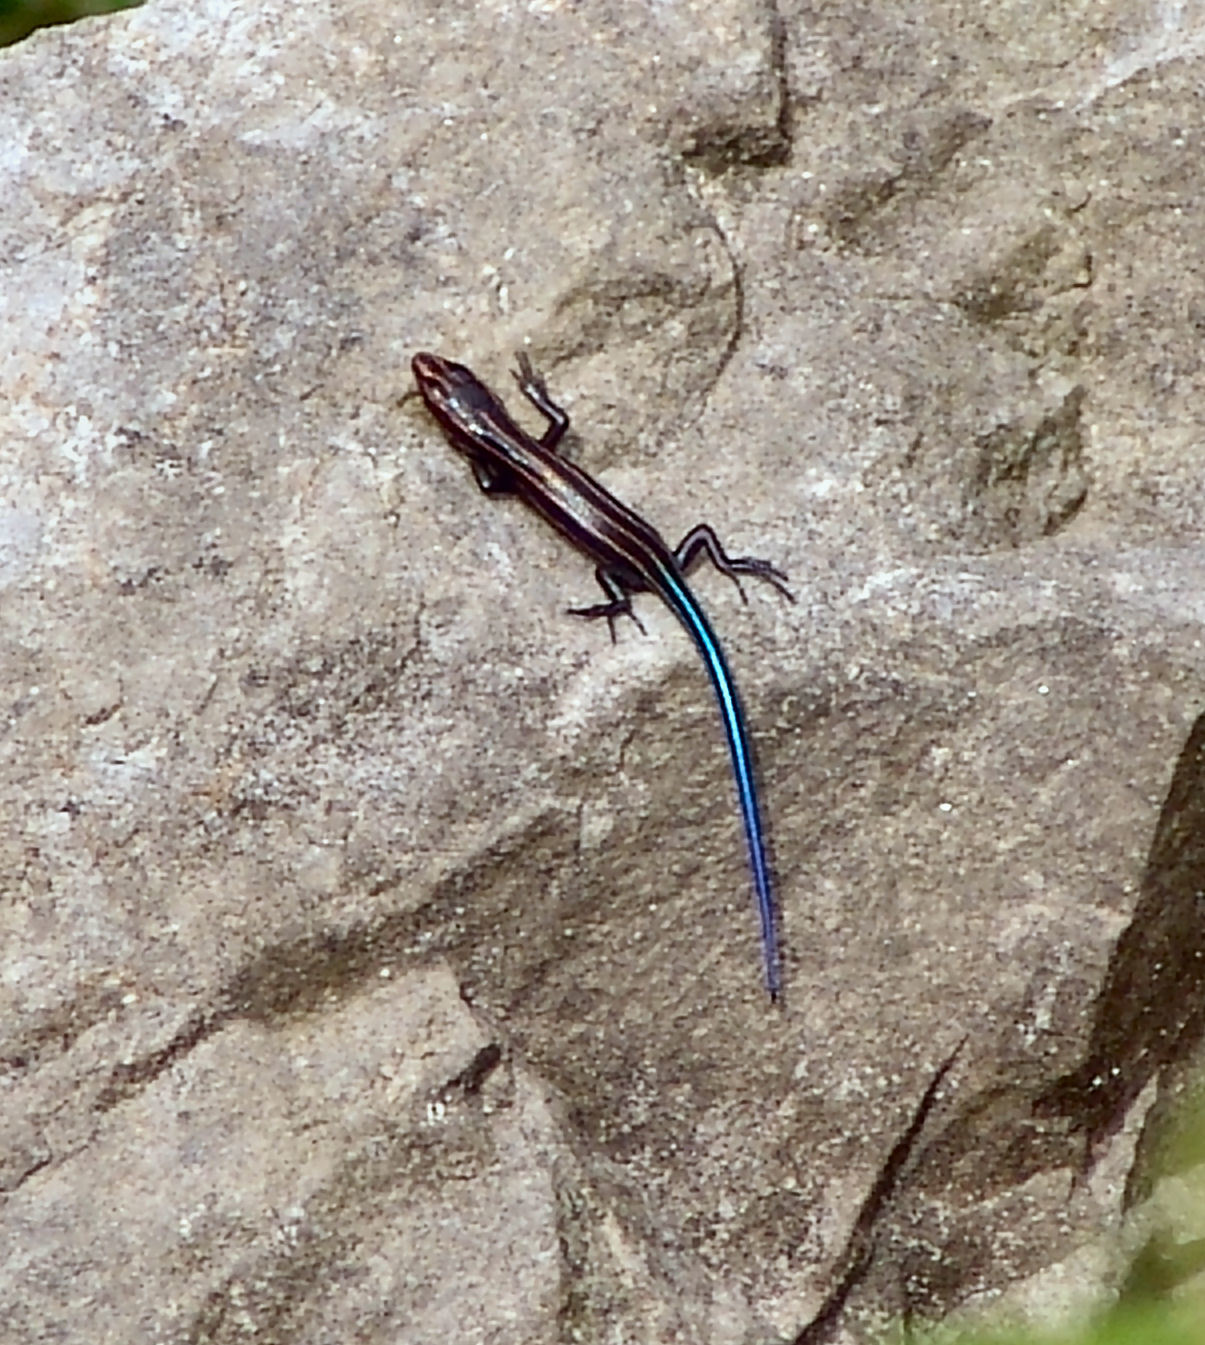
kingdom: Animalia
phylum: Chordata
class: Squamata
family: Scincidae
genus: Plestiodon
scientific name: Plestiodon
